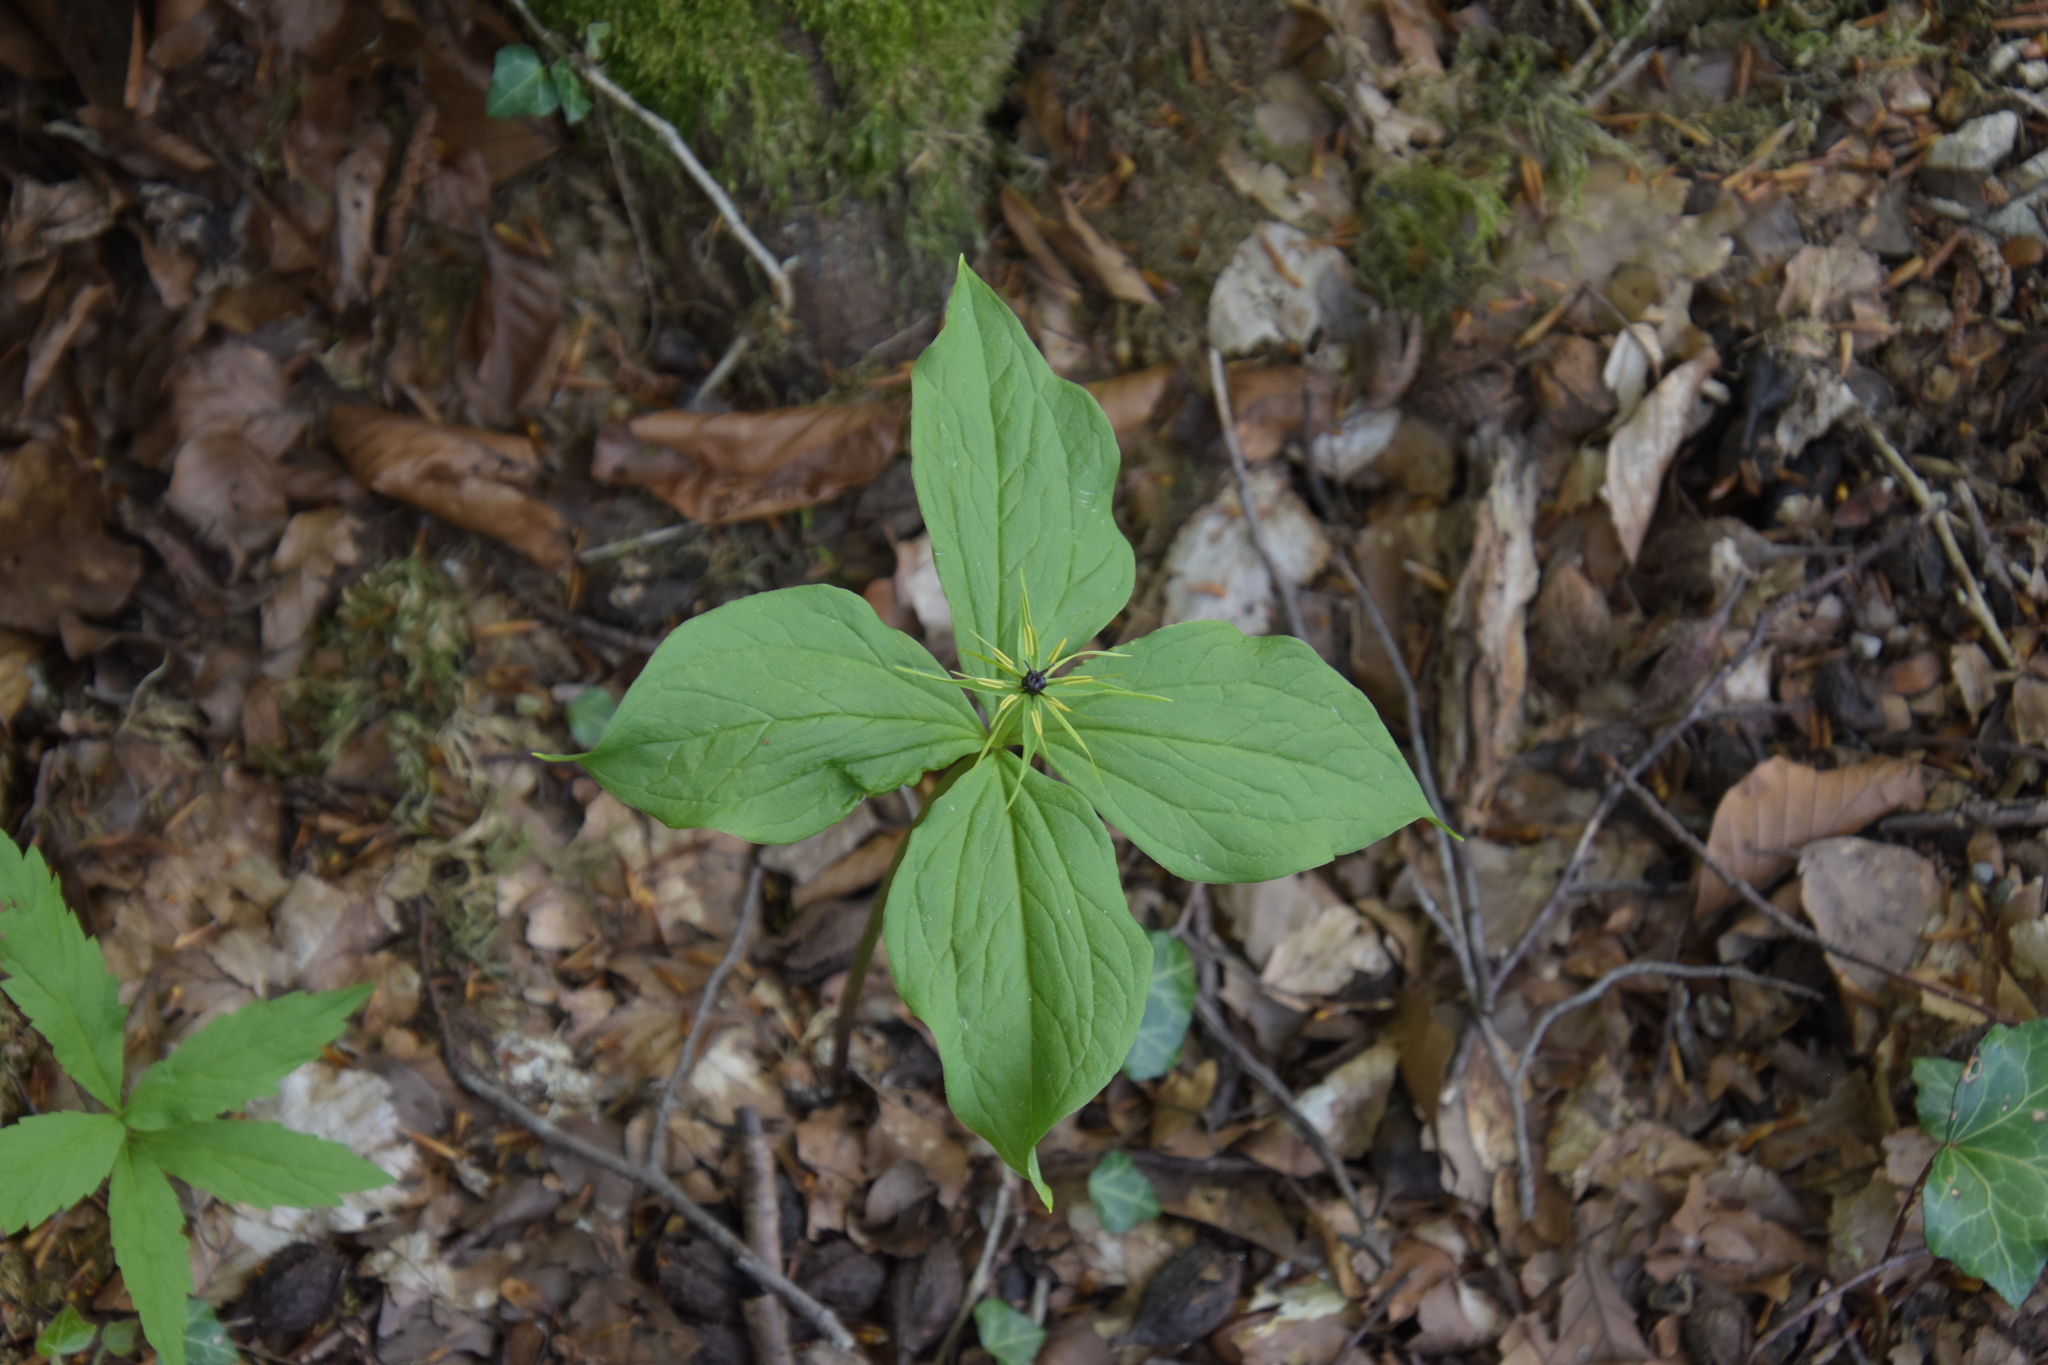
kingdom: Plantae
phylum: Tracheophyta
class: Liliopsida
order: Liliales
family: Melanthiaceae
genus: Paris
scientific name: Paris quadrifolia
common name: Herb-paris
